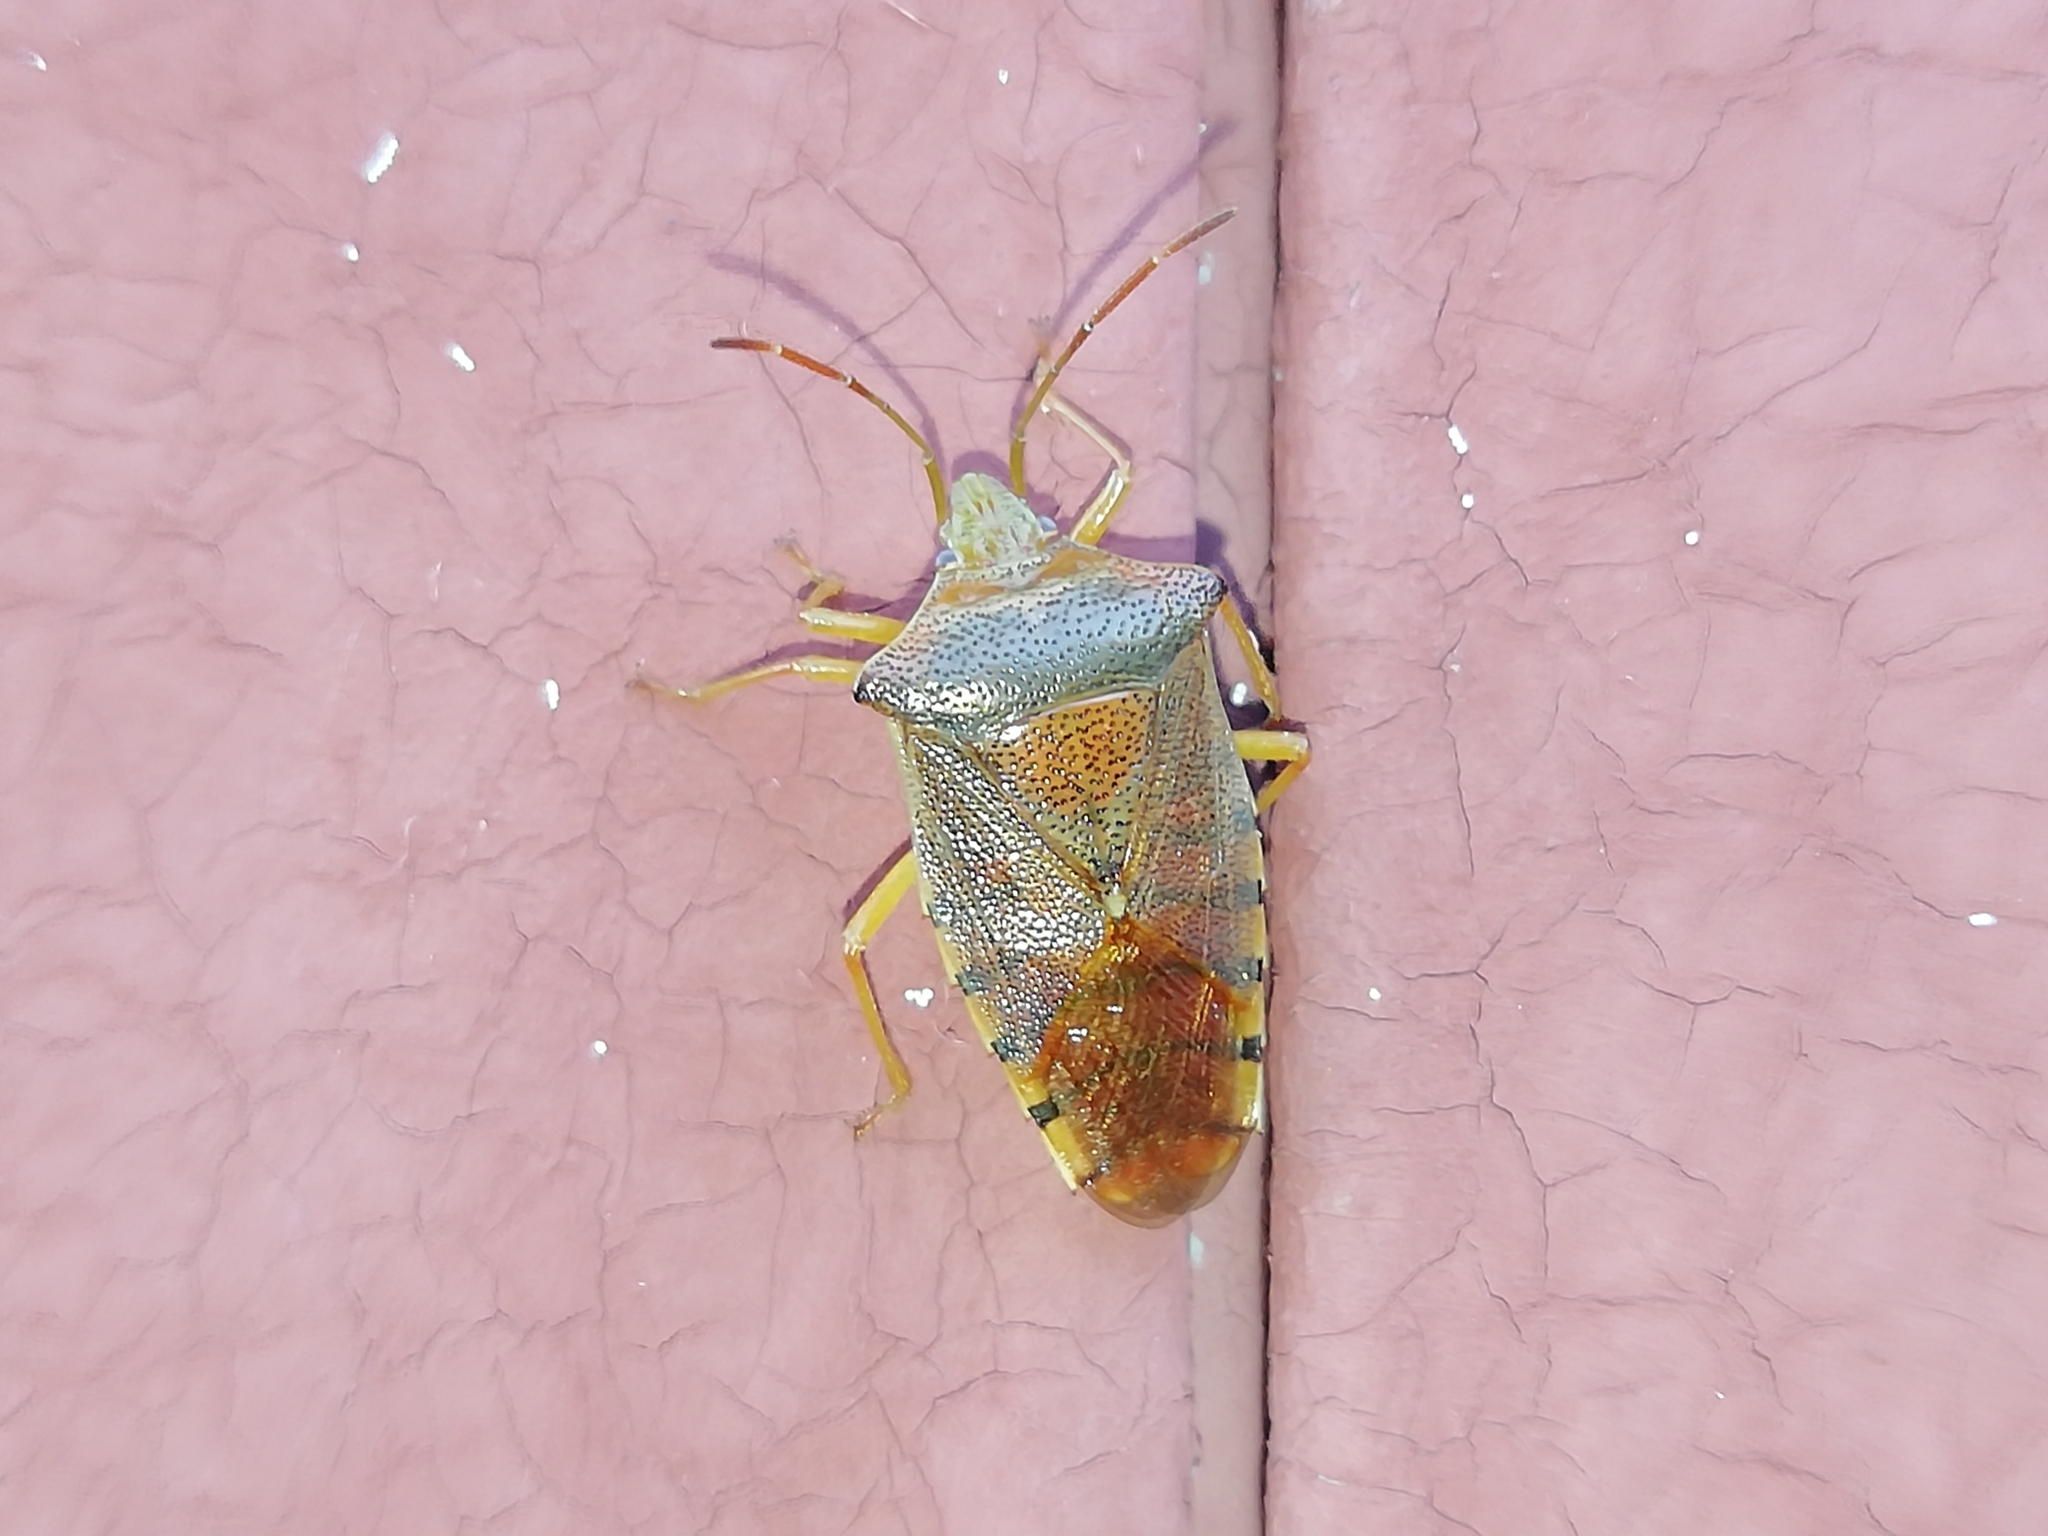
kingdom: Animalia
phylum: Arthropoda
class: Insecta
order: Hemiptera
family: Acanthosomatidae
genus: Acanthosoma
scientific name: Acanthosoma denticaudum
